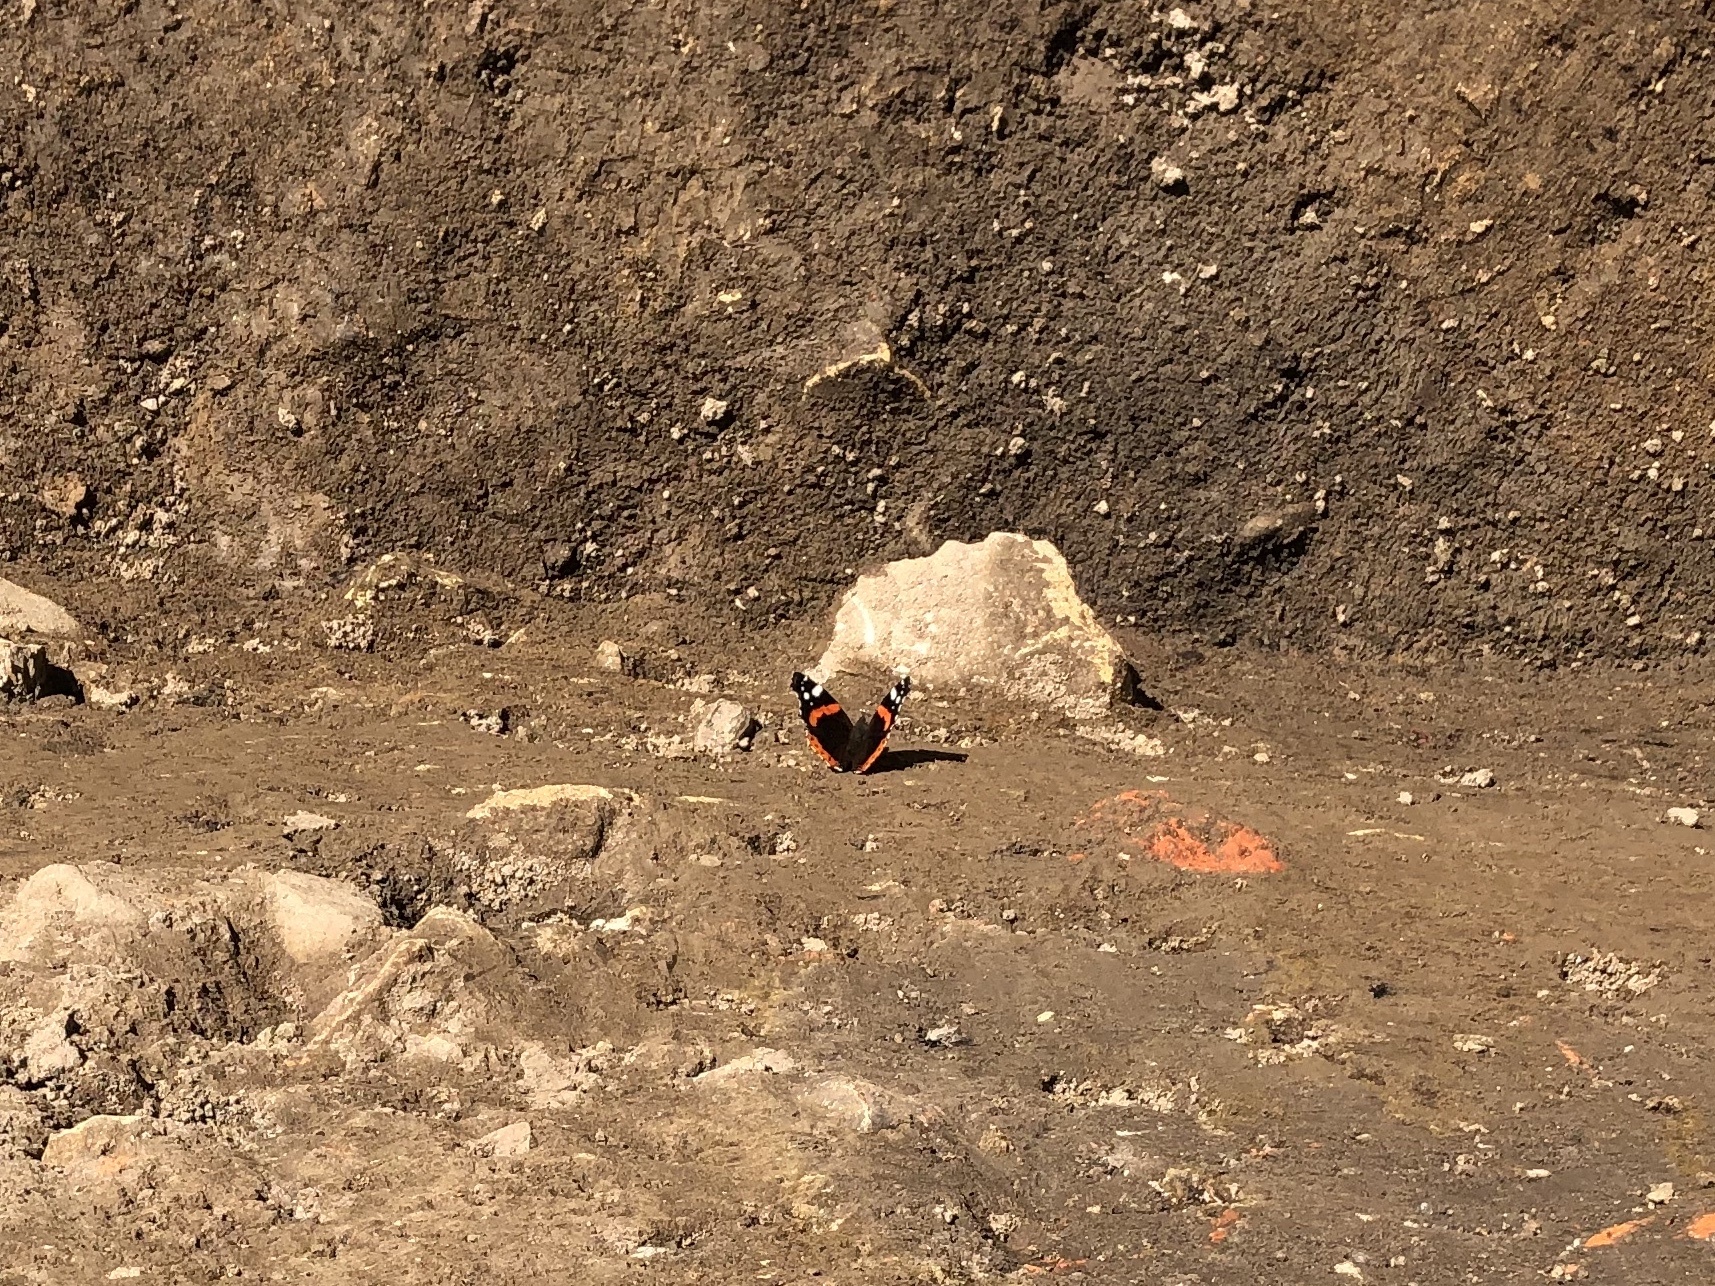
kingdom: Animalia
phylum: Arthropoda
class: Insecta
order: Lepidoptera
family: Nymphalidae
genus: Vanessa
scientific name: Vanessa atalanta
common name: Red admiral
